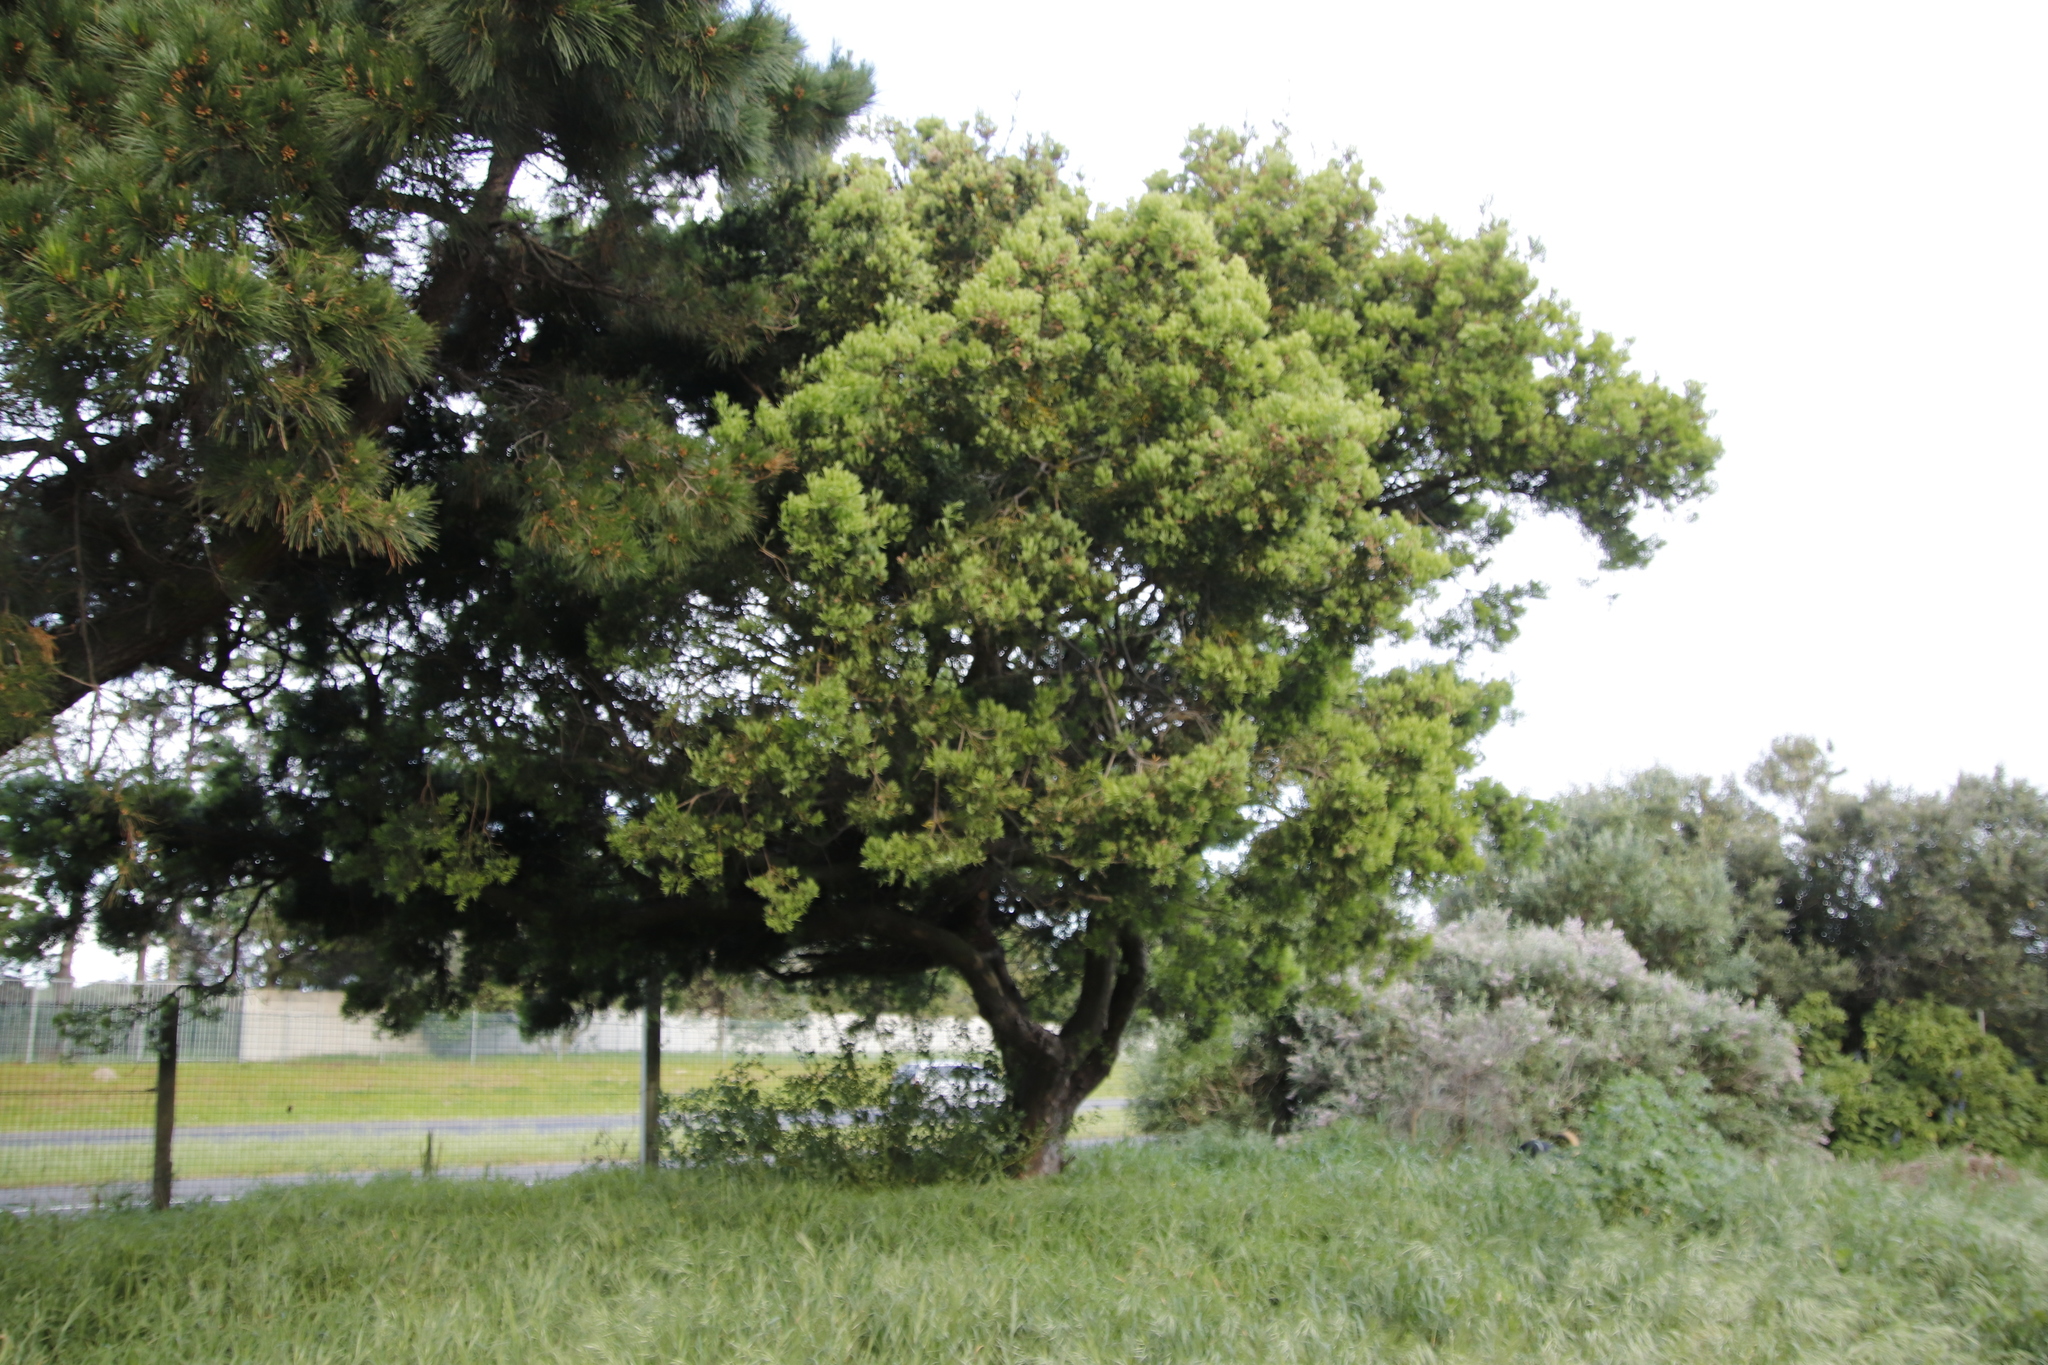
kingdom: Plantae
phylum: Tracheophyta
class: Pinopsida
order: Pinales
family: Podocarpaceae
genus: Afrocarpus
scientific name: Afrocarpus falcatus
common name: Bastard yellowwood
